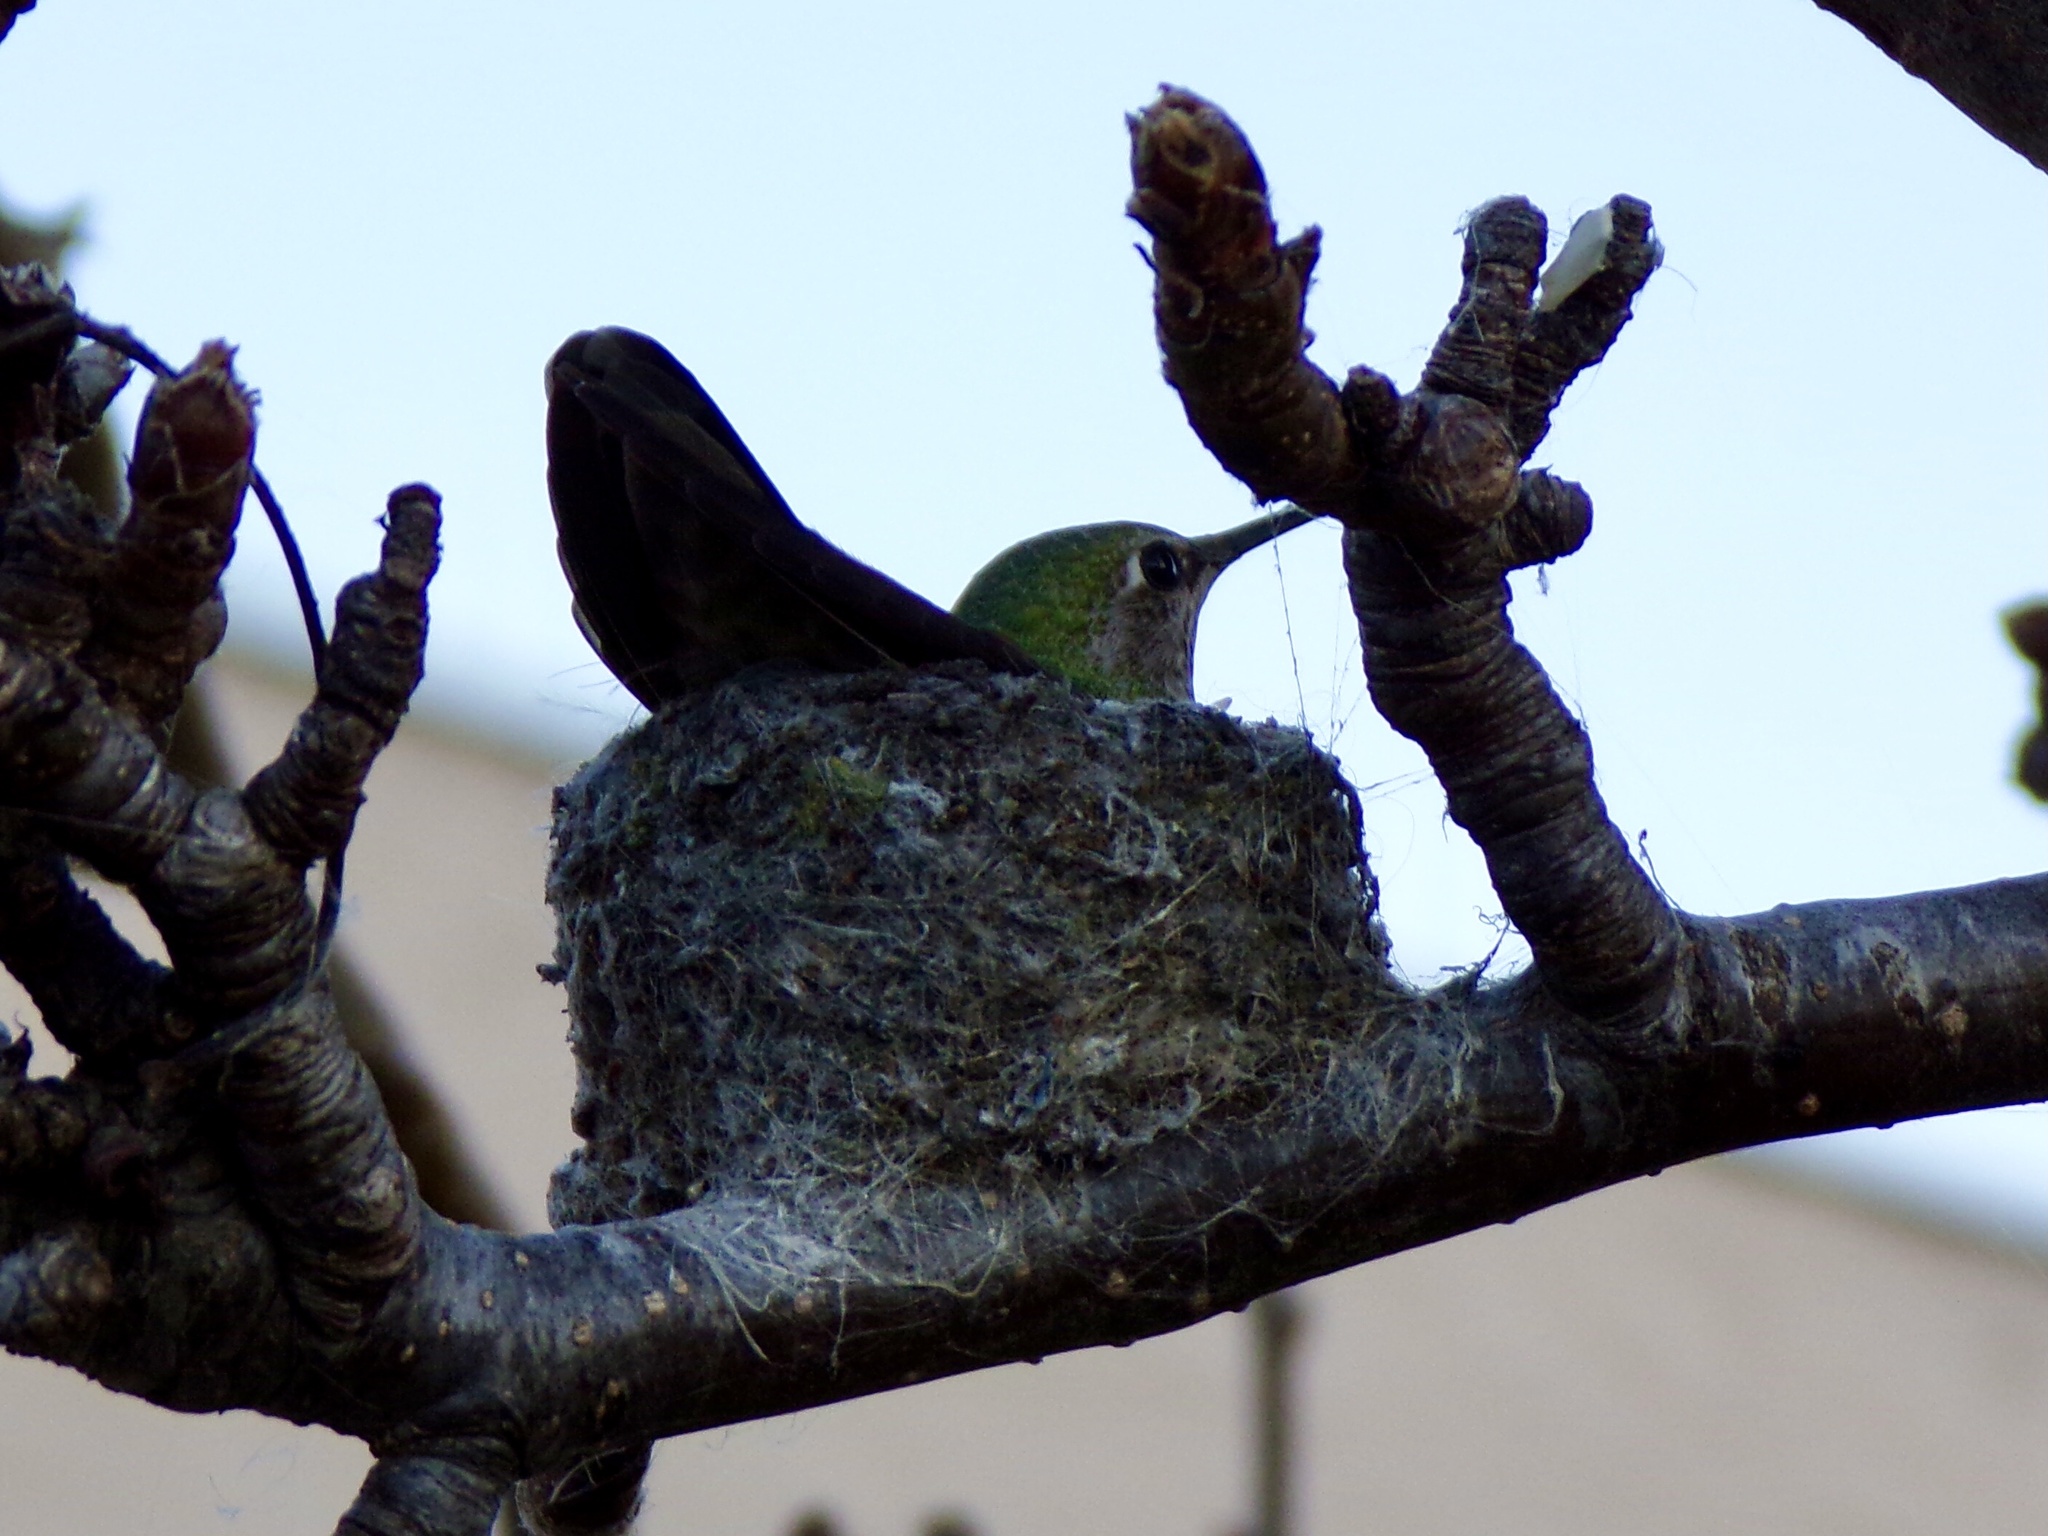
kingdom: Animalia
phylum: Chordata
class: Aves
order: Apodiformes
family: Trochilidae
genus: Calypte
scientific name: Calypte anna
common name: Anna's hummingbird
